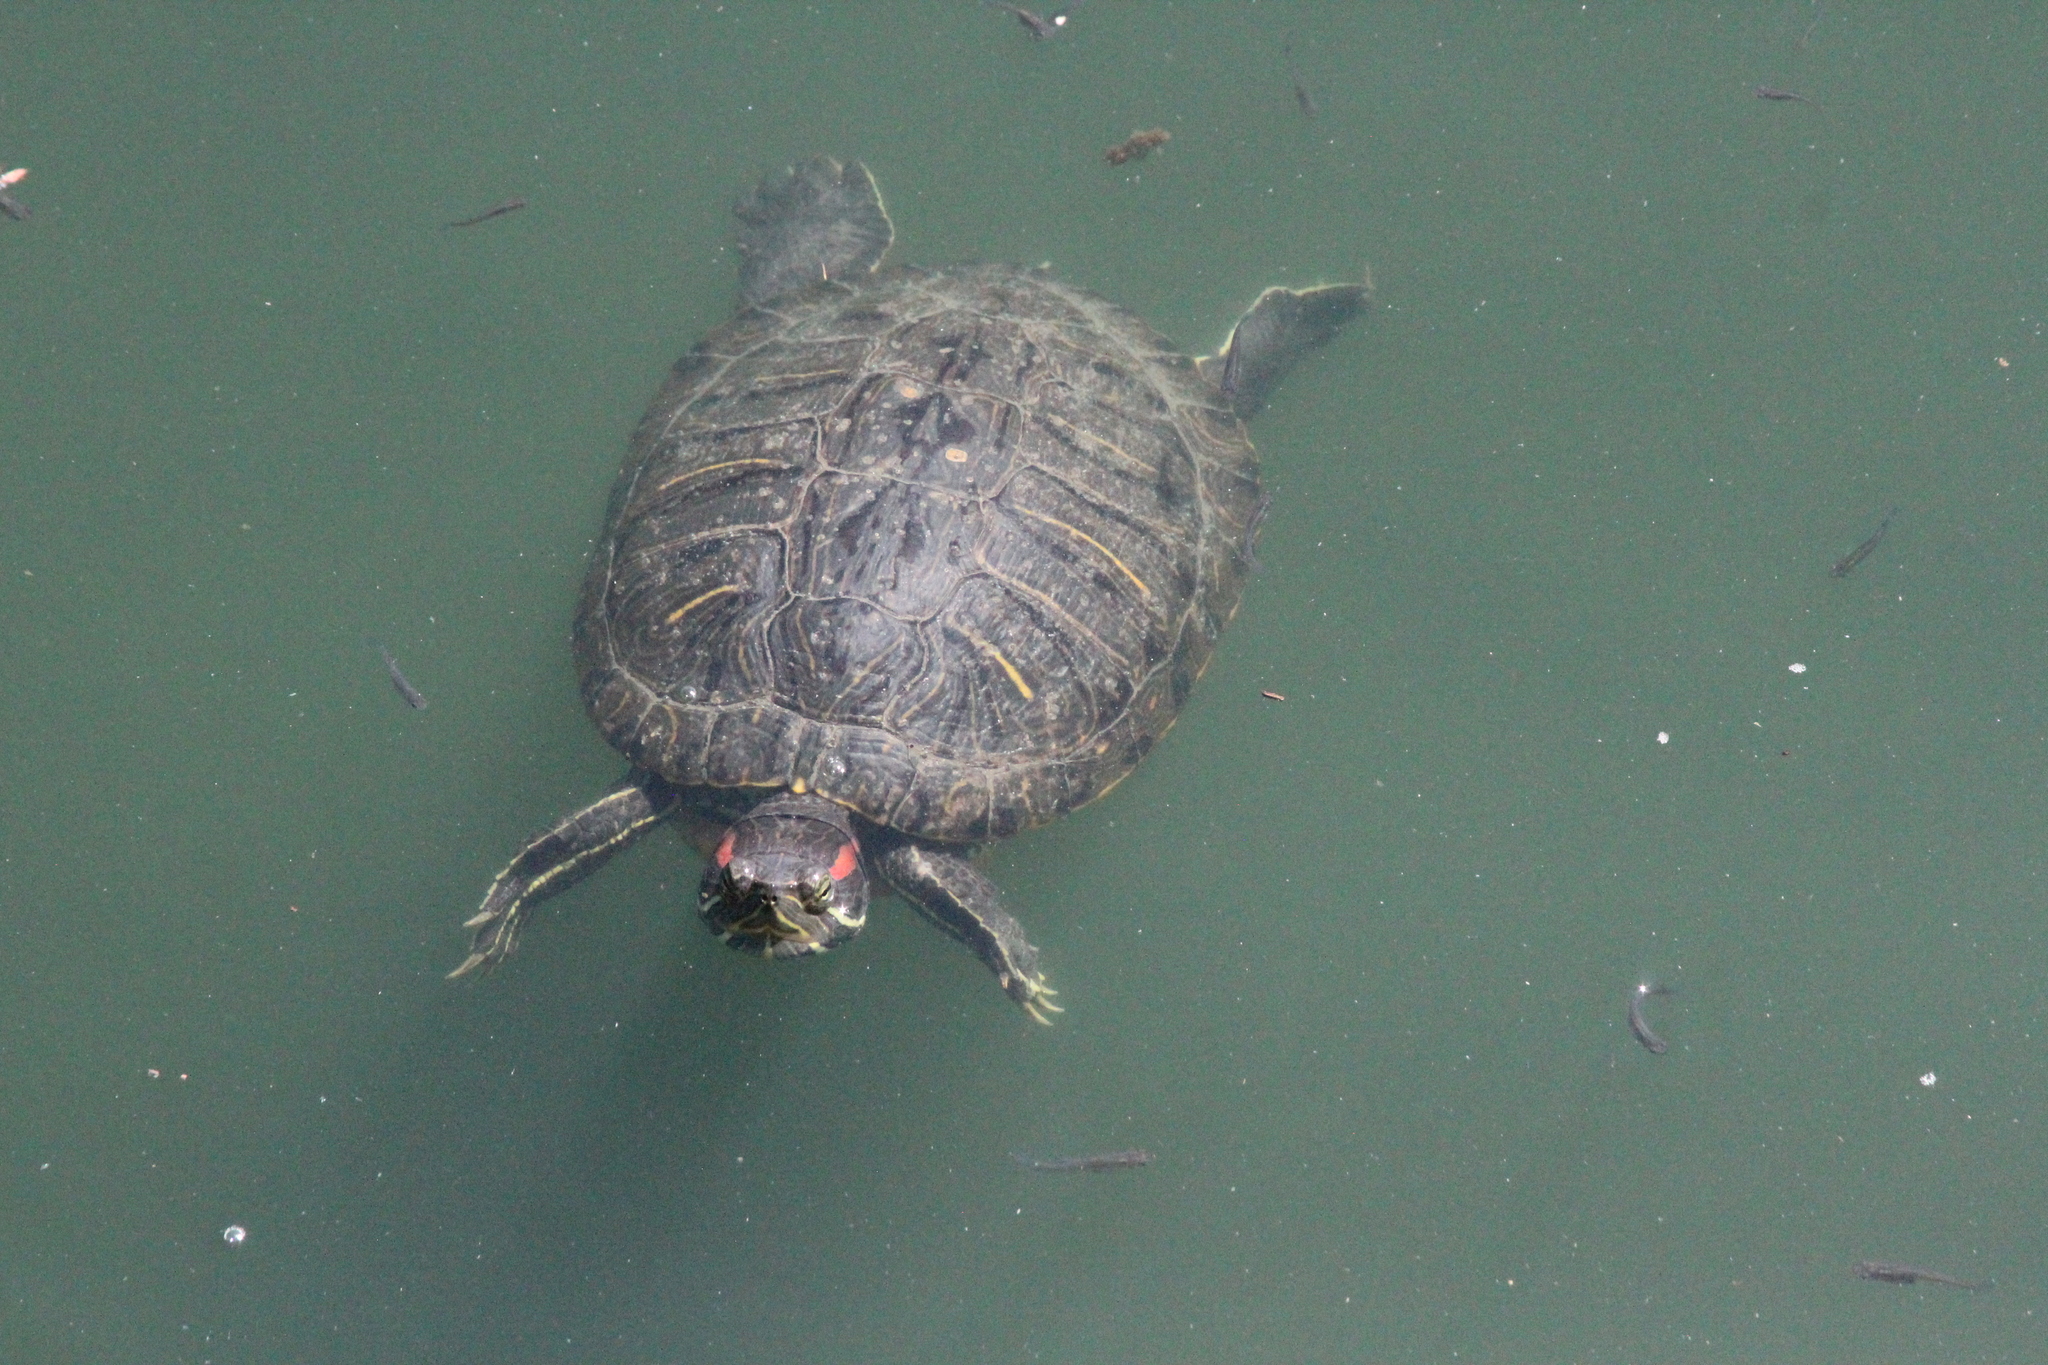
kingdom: Animalia
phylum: Chordata
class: Testudines
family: Emydidae
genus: Trachemys
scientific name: Trachemys scripta
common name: Slider
